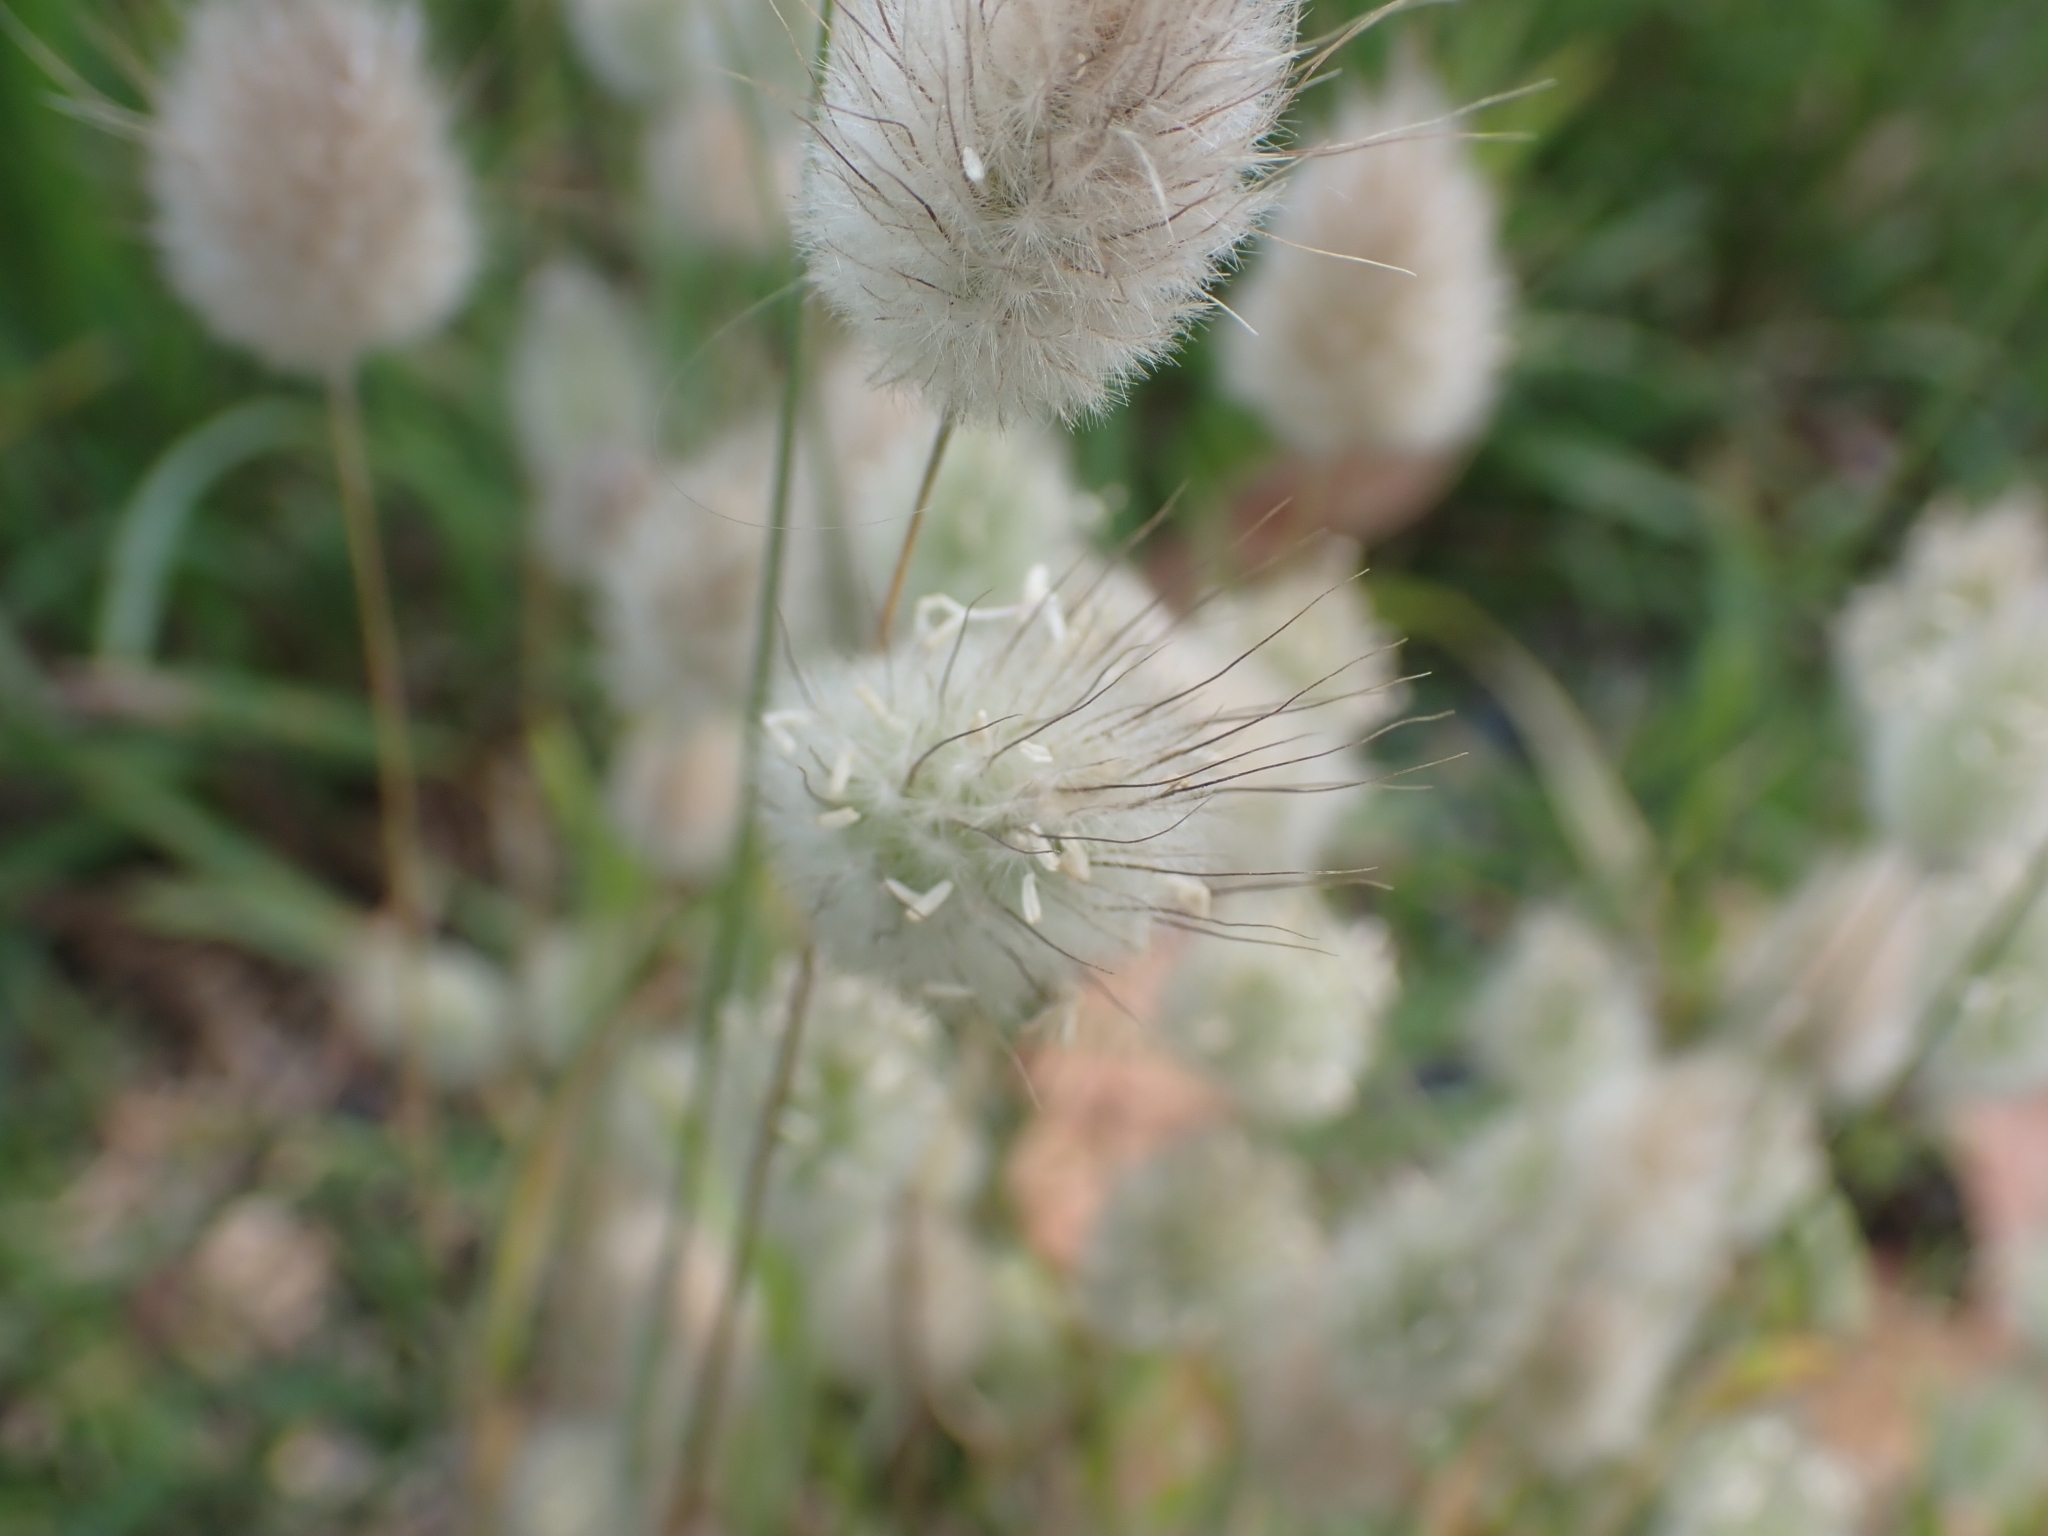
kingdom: Plantae
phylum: Tracheophyta
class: Liliopsida
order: Poales
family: Poaceae
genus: Lagurus
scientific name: Lagurus ovatus
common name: Hare's-tail
